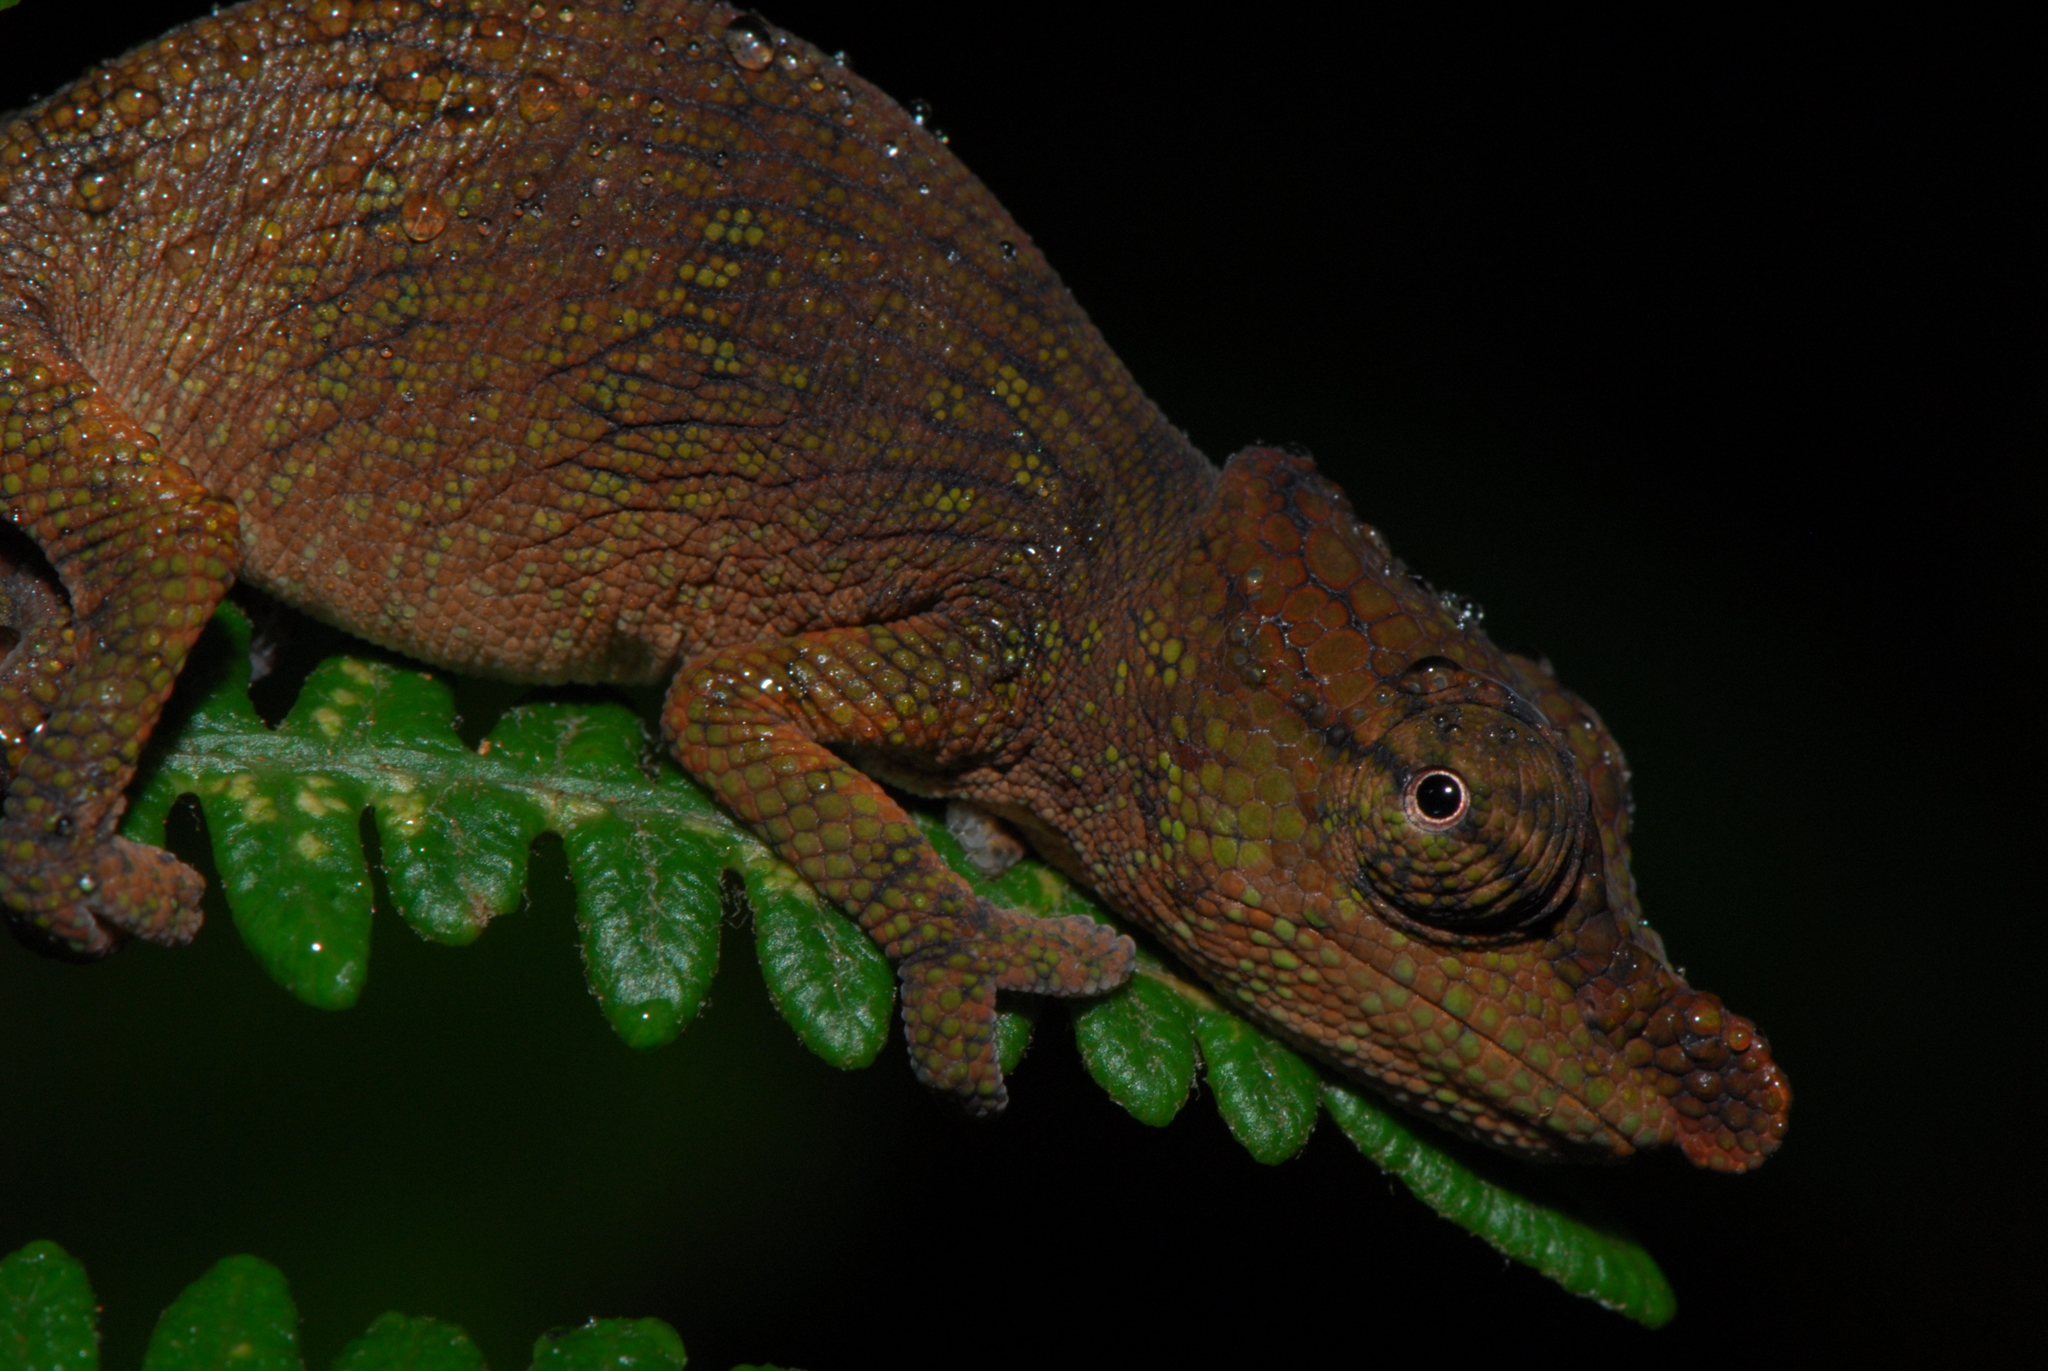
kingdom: Animalia
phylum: Chordata
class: Squamata
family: Chamaeleonidae
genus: Calumma
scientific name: Calumma nasutum
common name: Nose-horned chameleon
